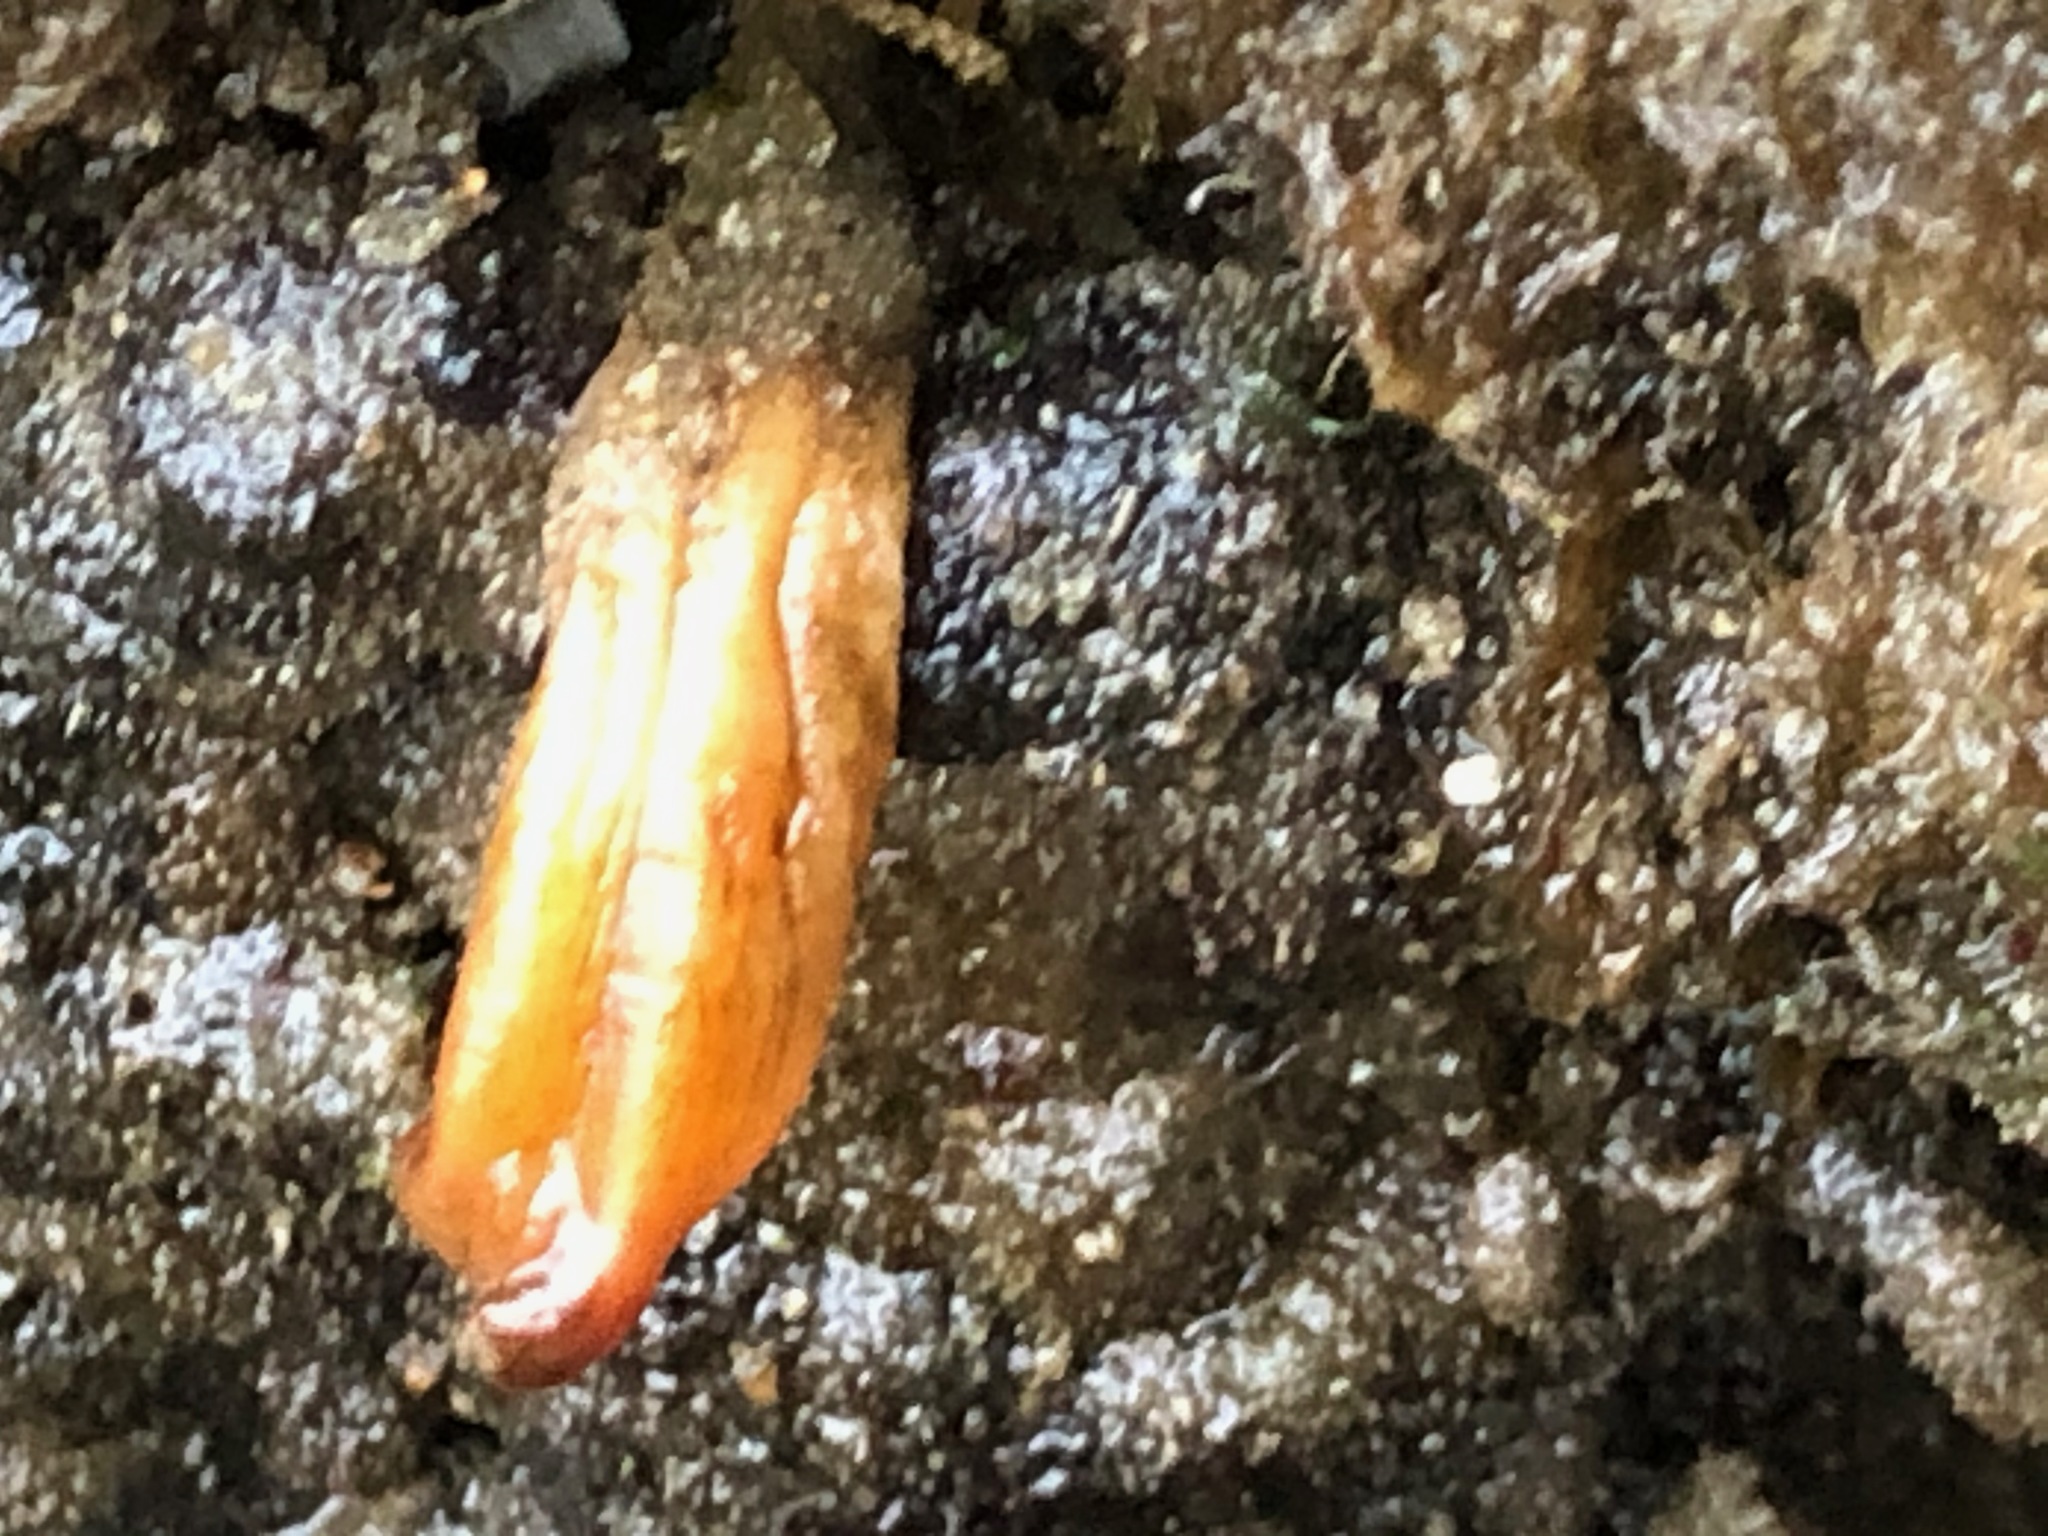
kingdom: Animalia
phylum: Chordata
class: Ascidiacea
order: Stolidobranchia
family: Styelidae
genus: Styela
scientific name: Styela montereyensis
